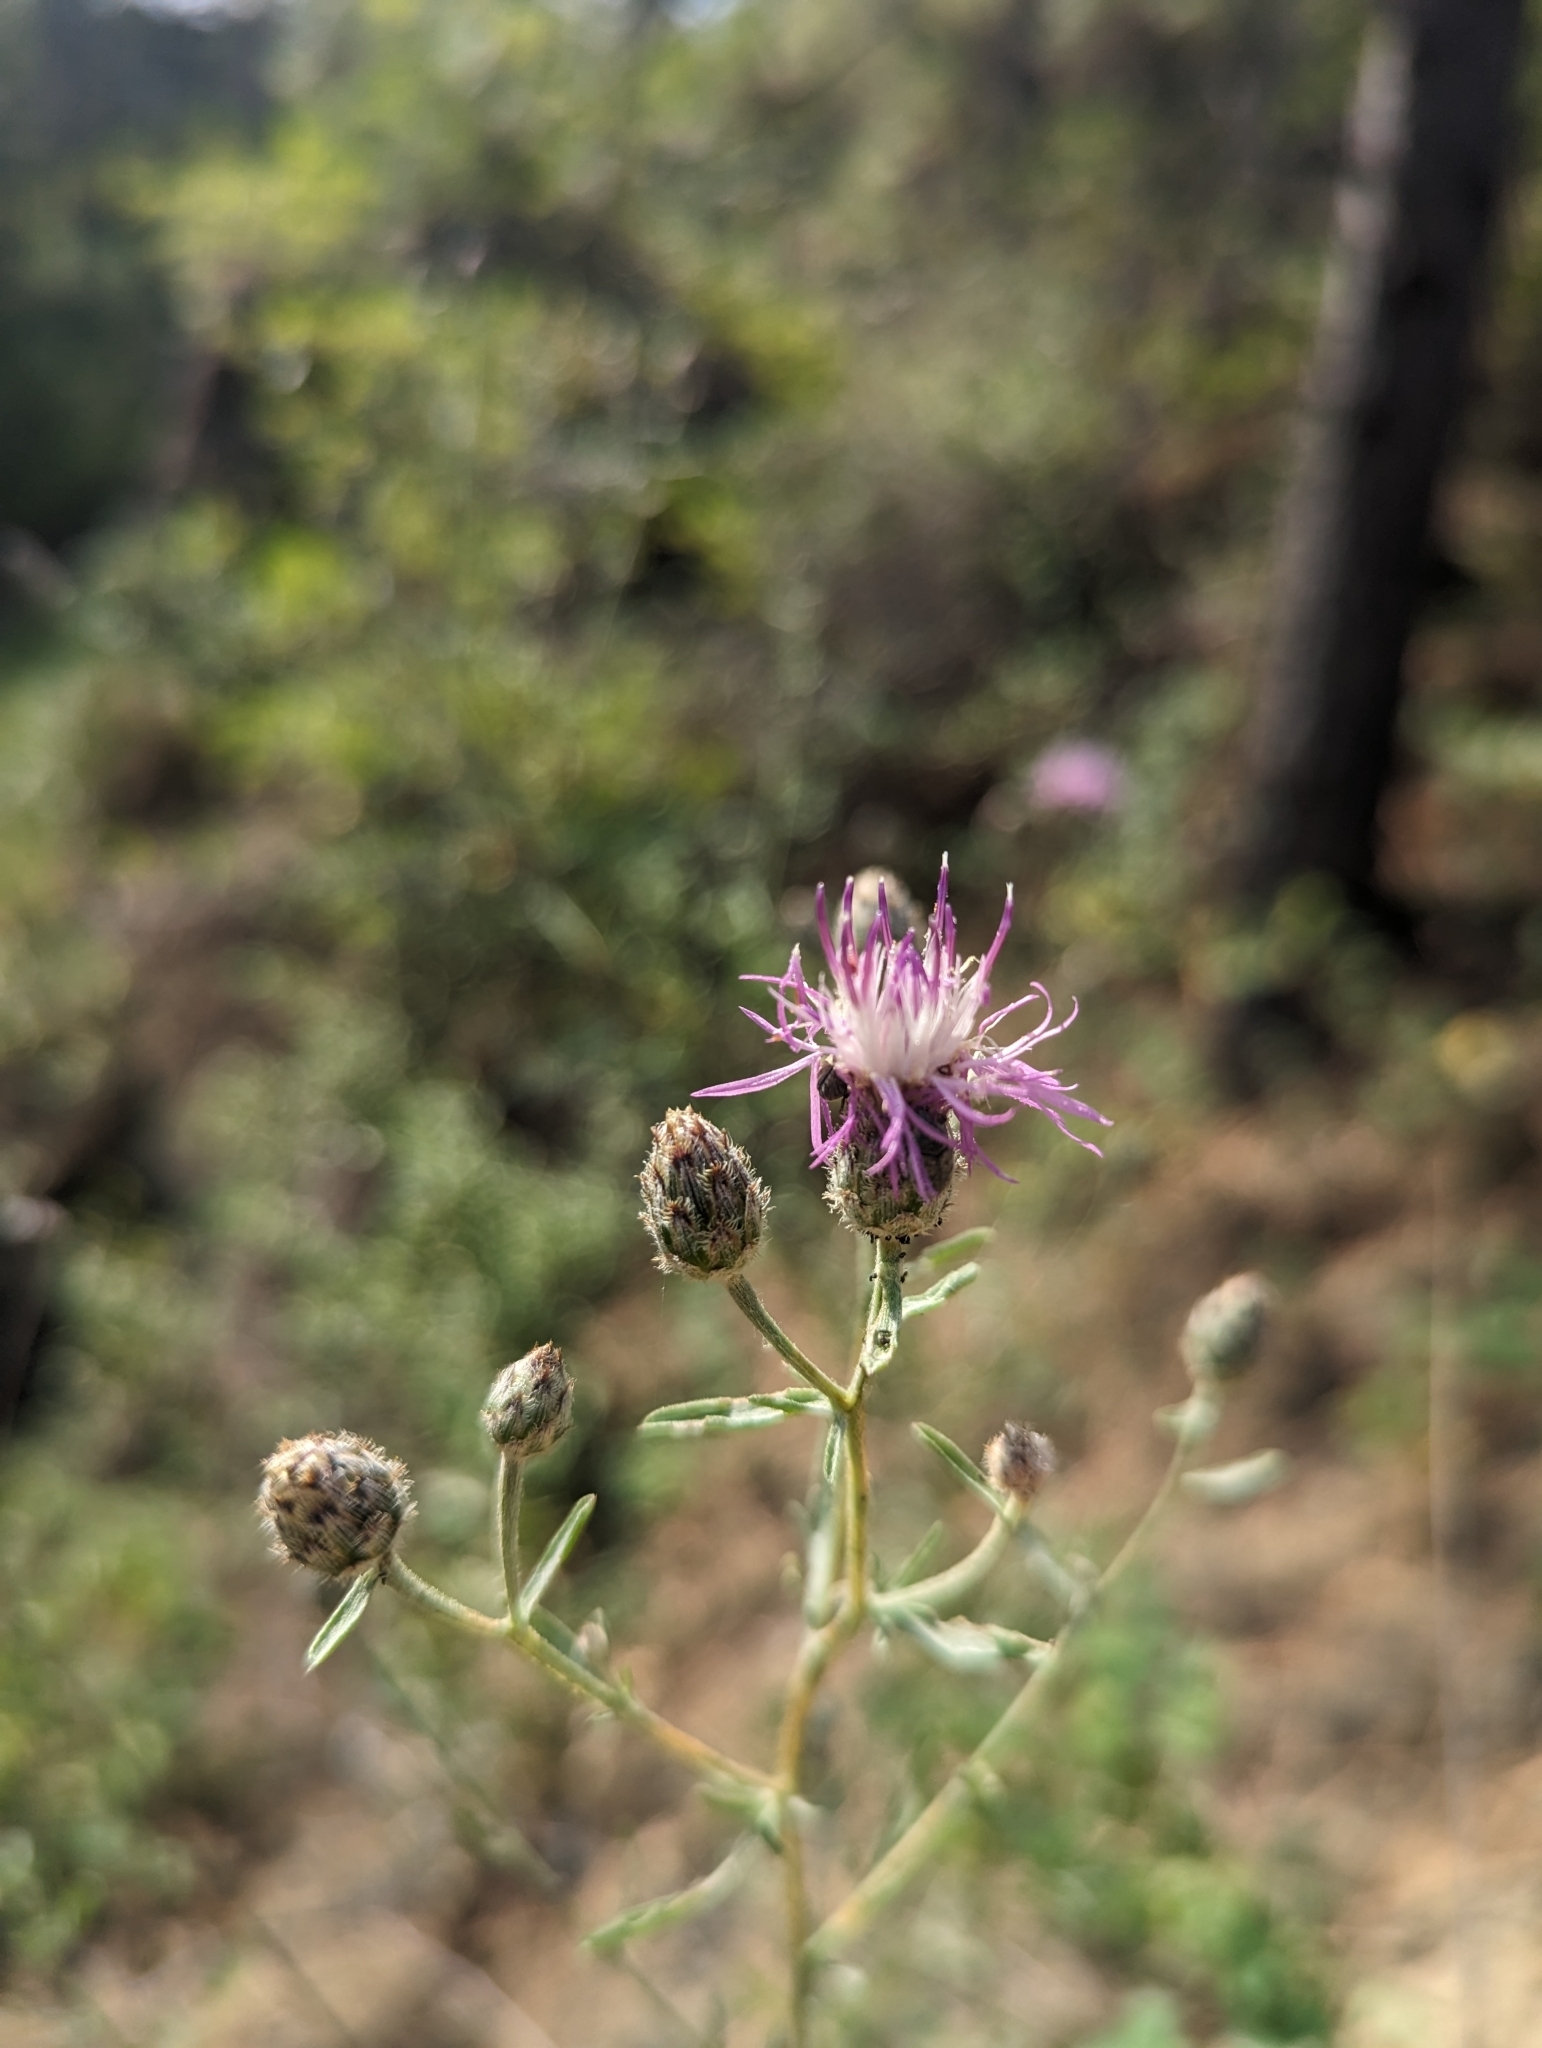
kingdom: Plantae
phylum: Tracheophyta
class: Magnoliopsida
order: Asterales
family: Asteraceae
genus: Centaurea
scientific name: Centaurea stoebe
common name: Spotted knapweed
